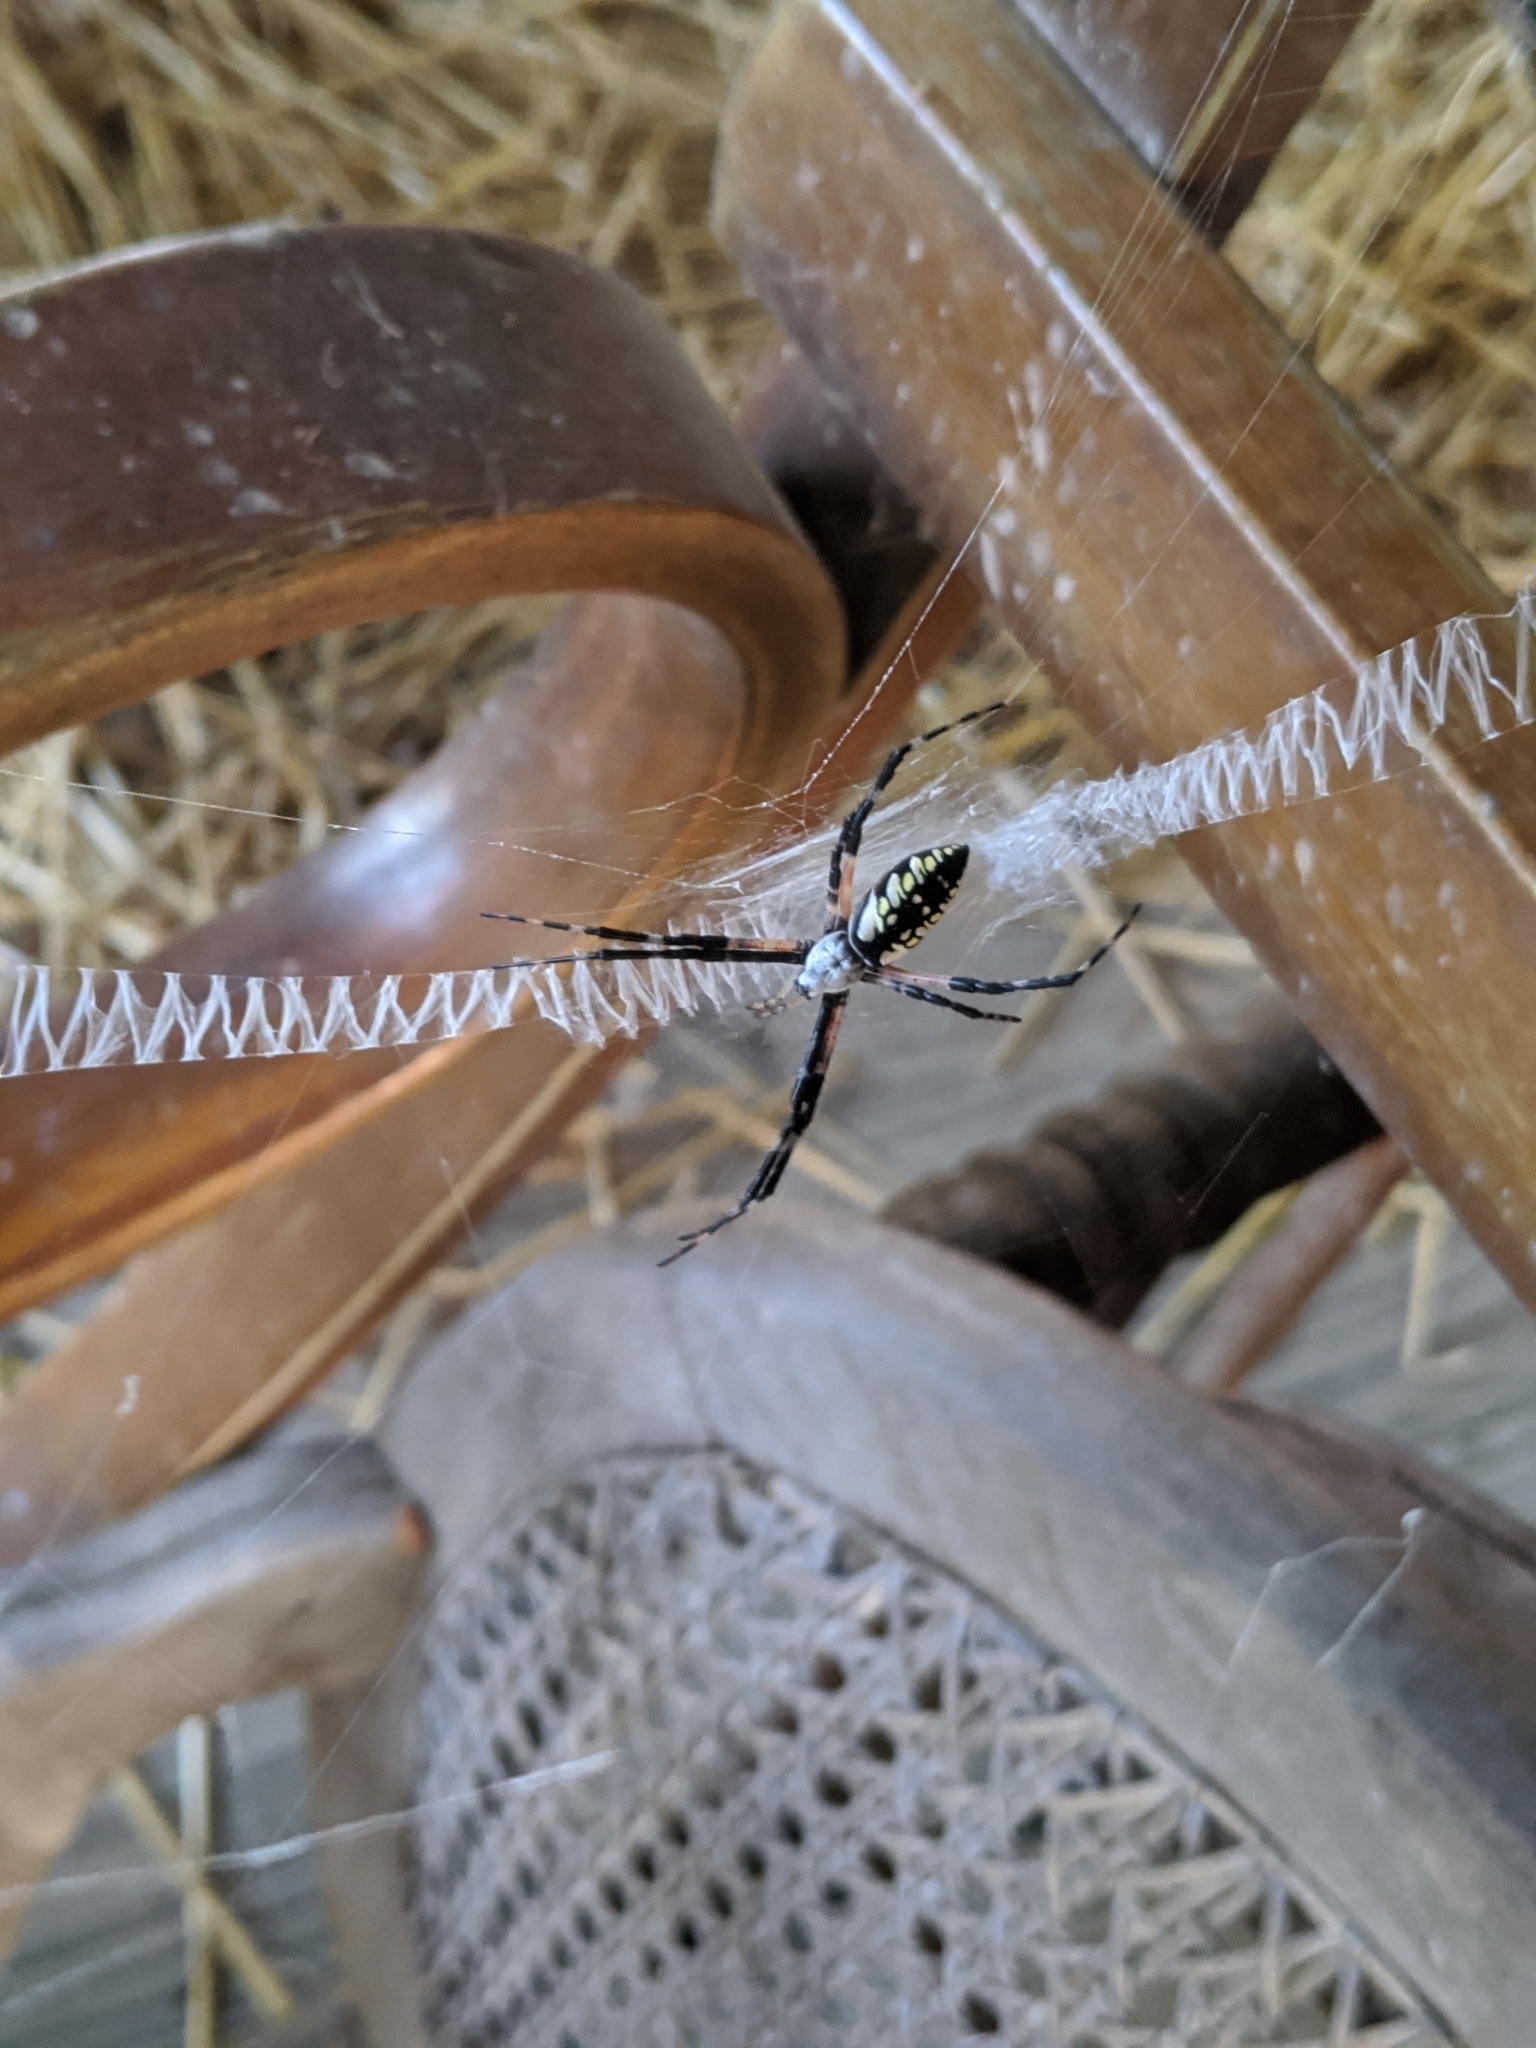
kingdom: Animalia
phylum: Arthropoda
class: Arachnida
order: Araneae
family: Araneidae
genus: Argiope
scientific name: Argiope aurantia
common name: Orb weavers
